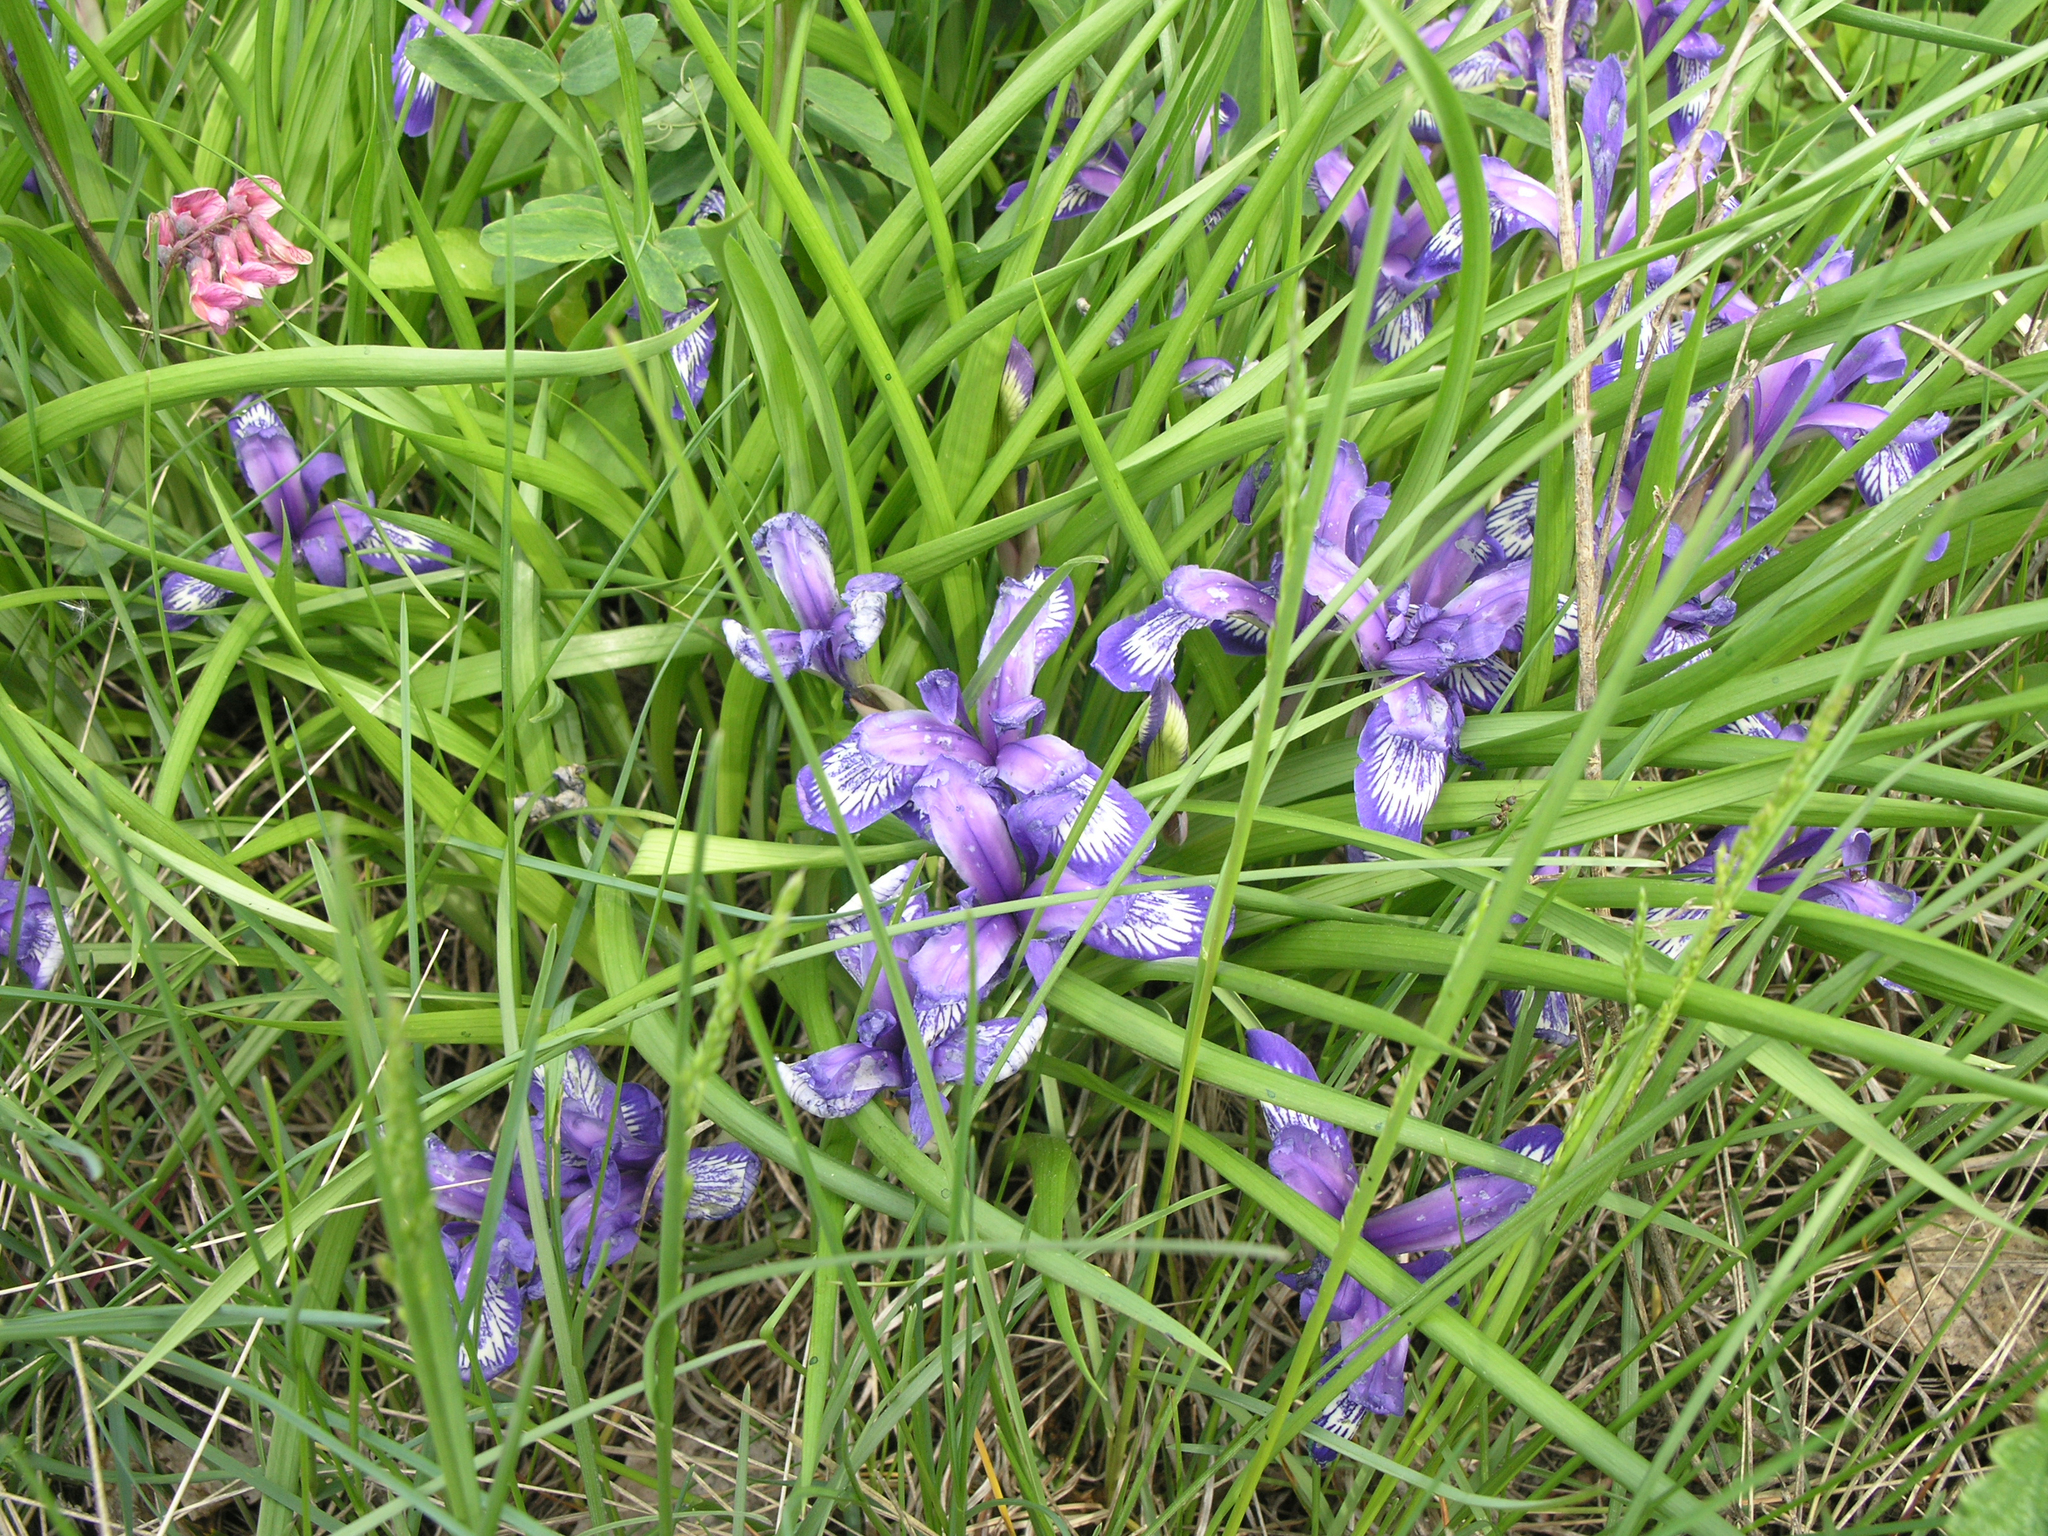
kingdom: Plantae
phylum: Tracheophyta
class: Liliopsida
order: Asparagales
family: Iridaceae
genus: Iris
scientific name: Iris ruthenica
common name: Purple-bract iris
